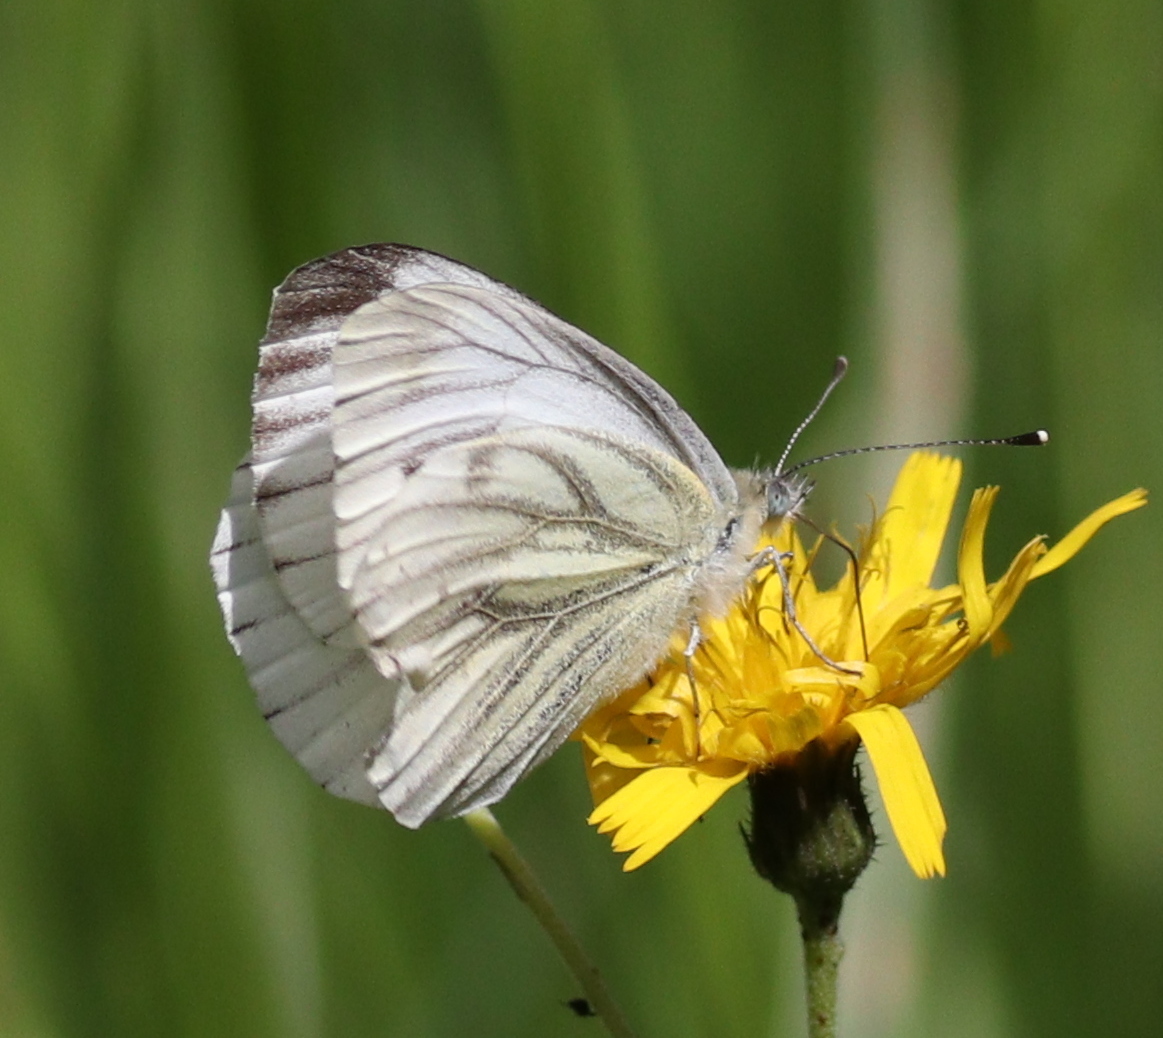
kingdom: Animalia
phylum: Arthropoda
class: Insecta
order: Lepidoptera
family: Pieridae
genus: Pieris
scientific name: Pieris napi
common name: Green-veined white
